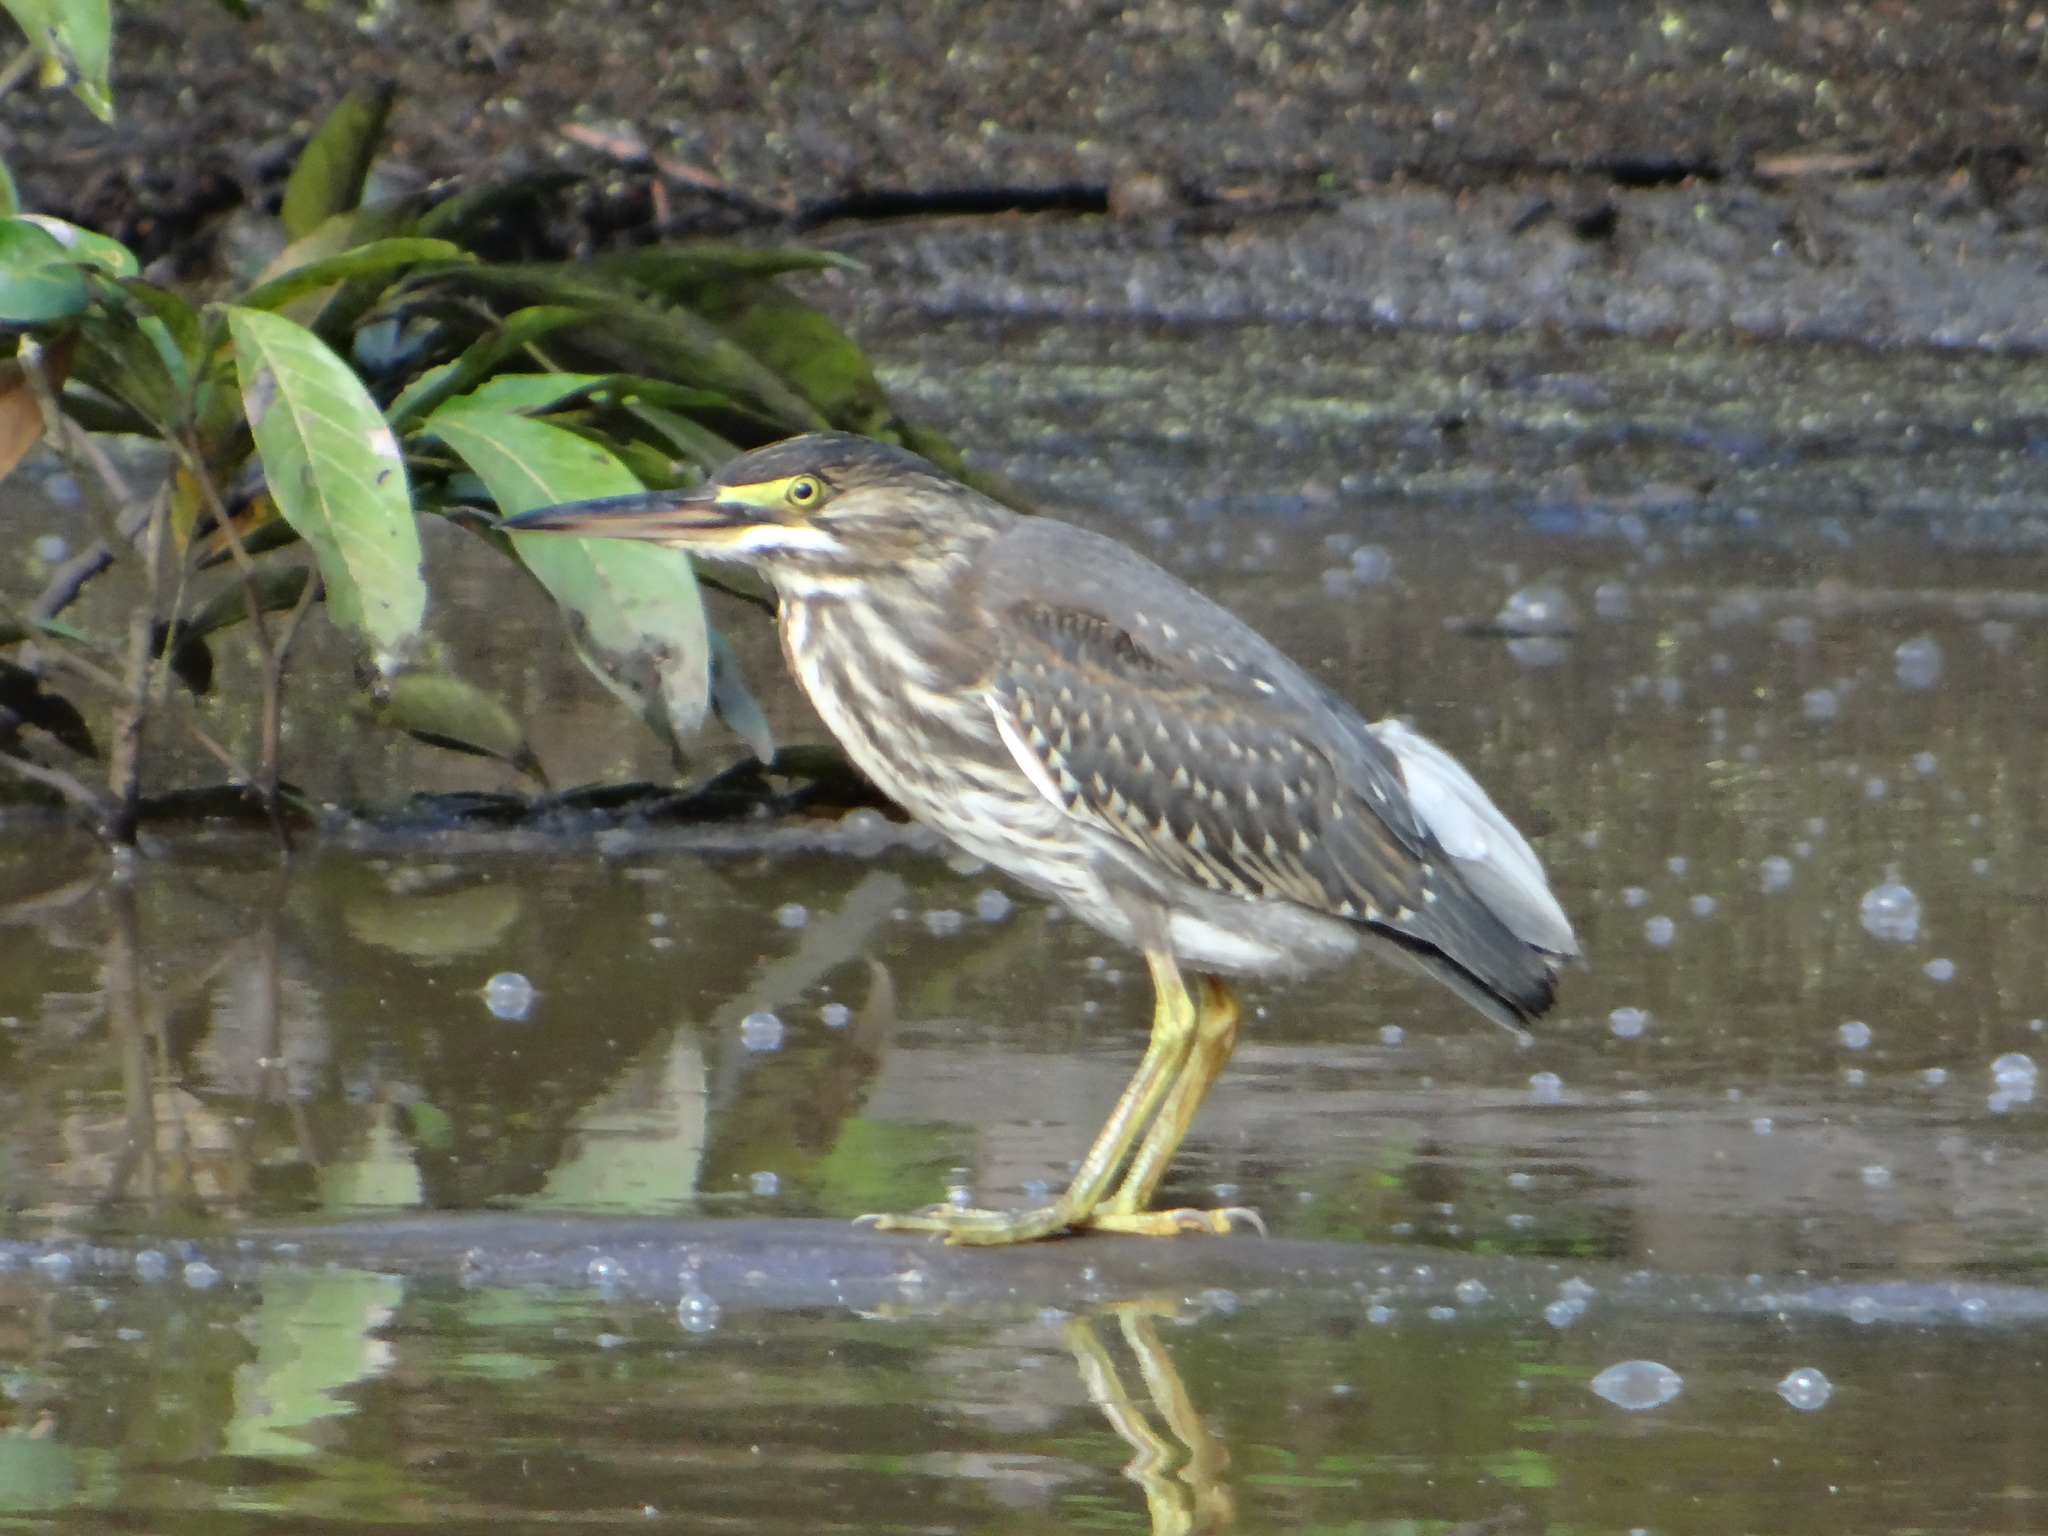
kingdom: Animalia
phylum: Chordata
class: Aves
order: Pelecaniformes
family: Ardeidae
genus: Butorides
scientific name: Butorides striata
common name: Striated heron
